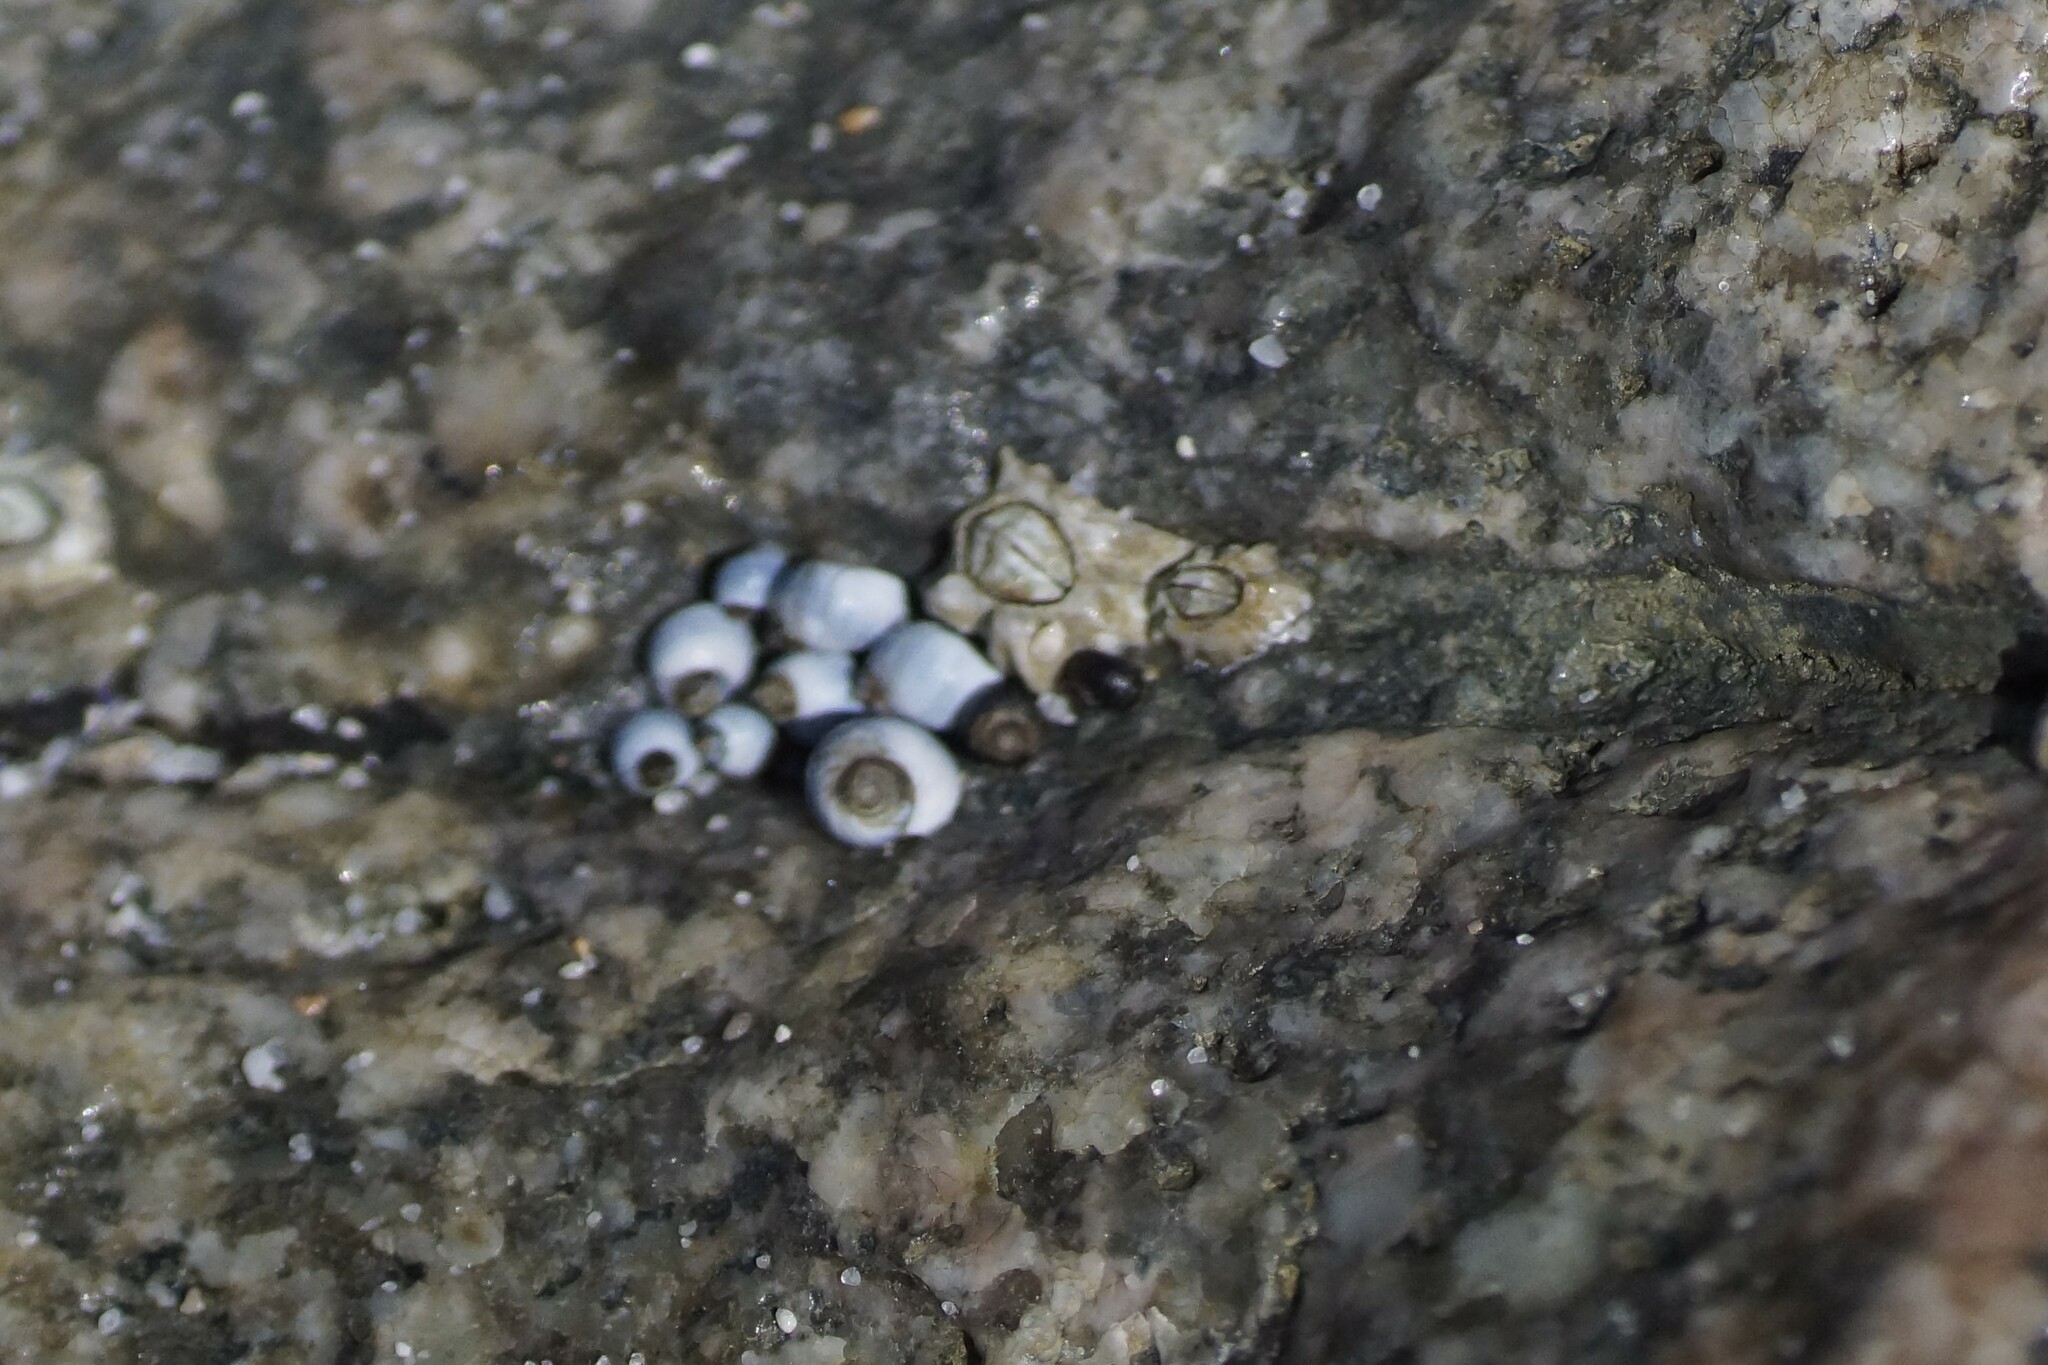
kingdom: Animalia
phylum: Mollusca
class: Gastropoda
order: Littorinimorpha
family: Littorinidae
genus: Austrolittorina
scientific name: Austrolittorina unifasciata
